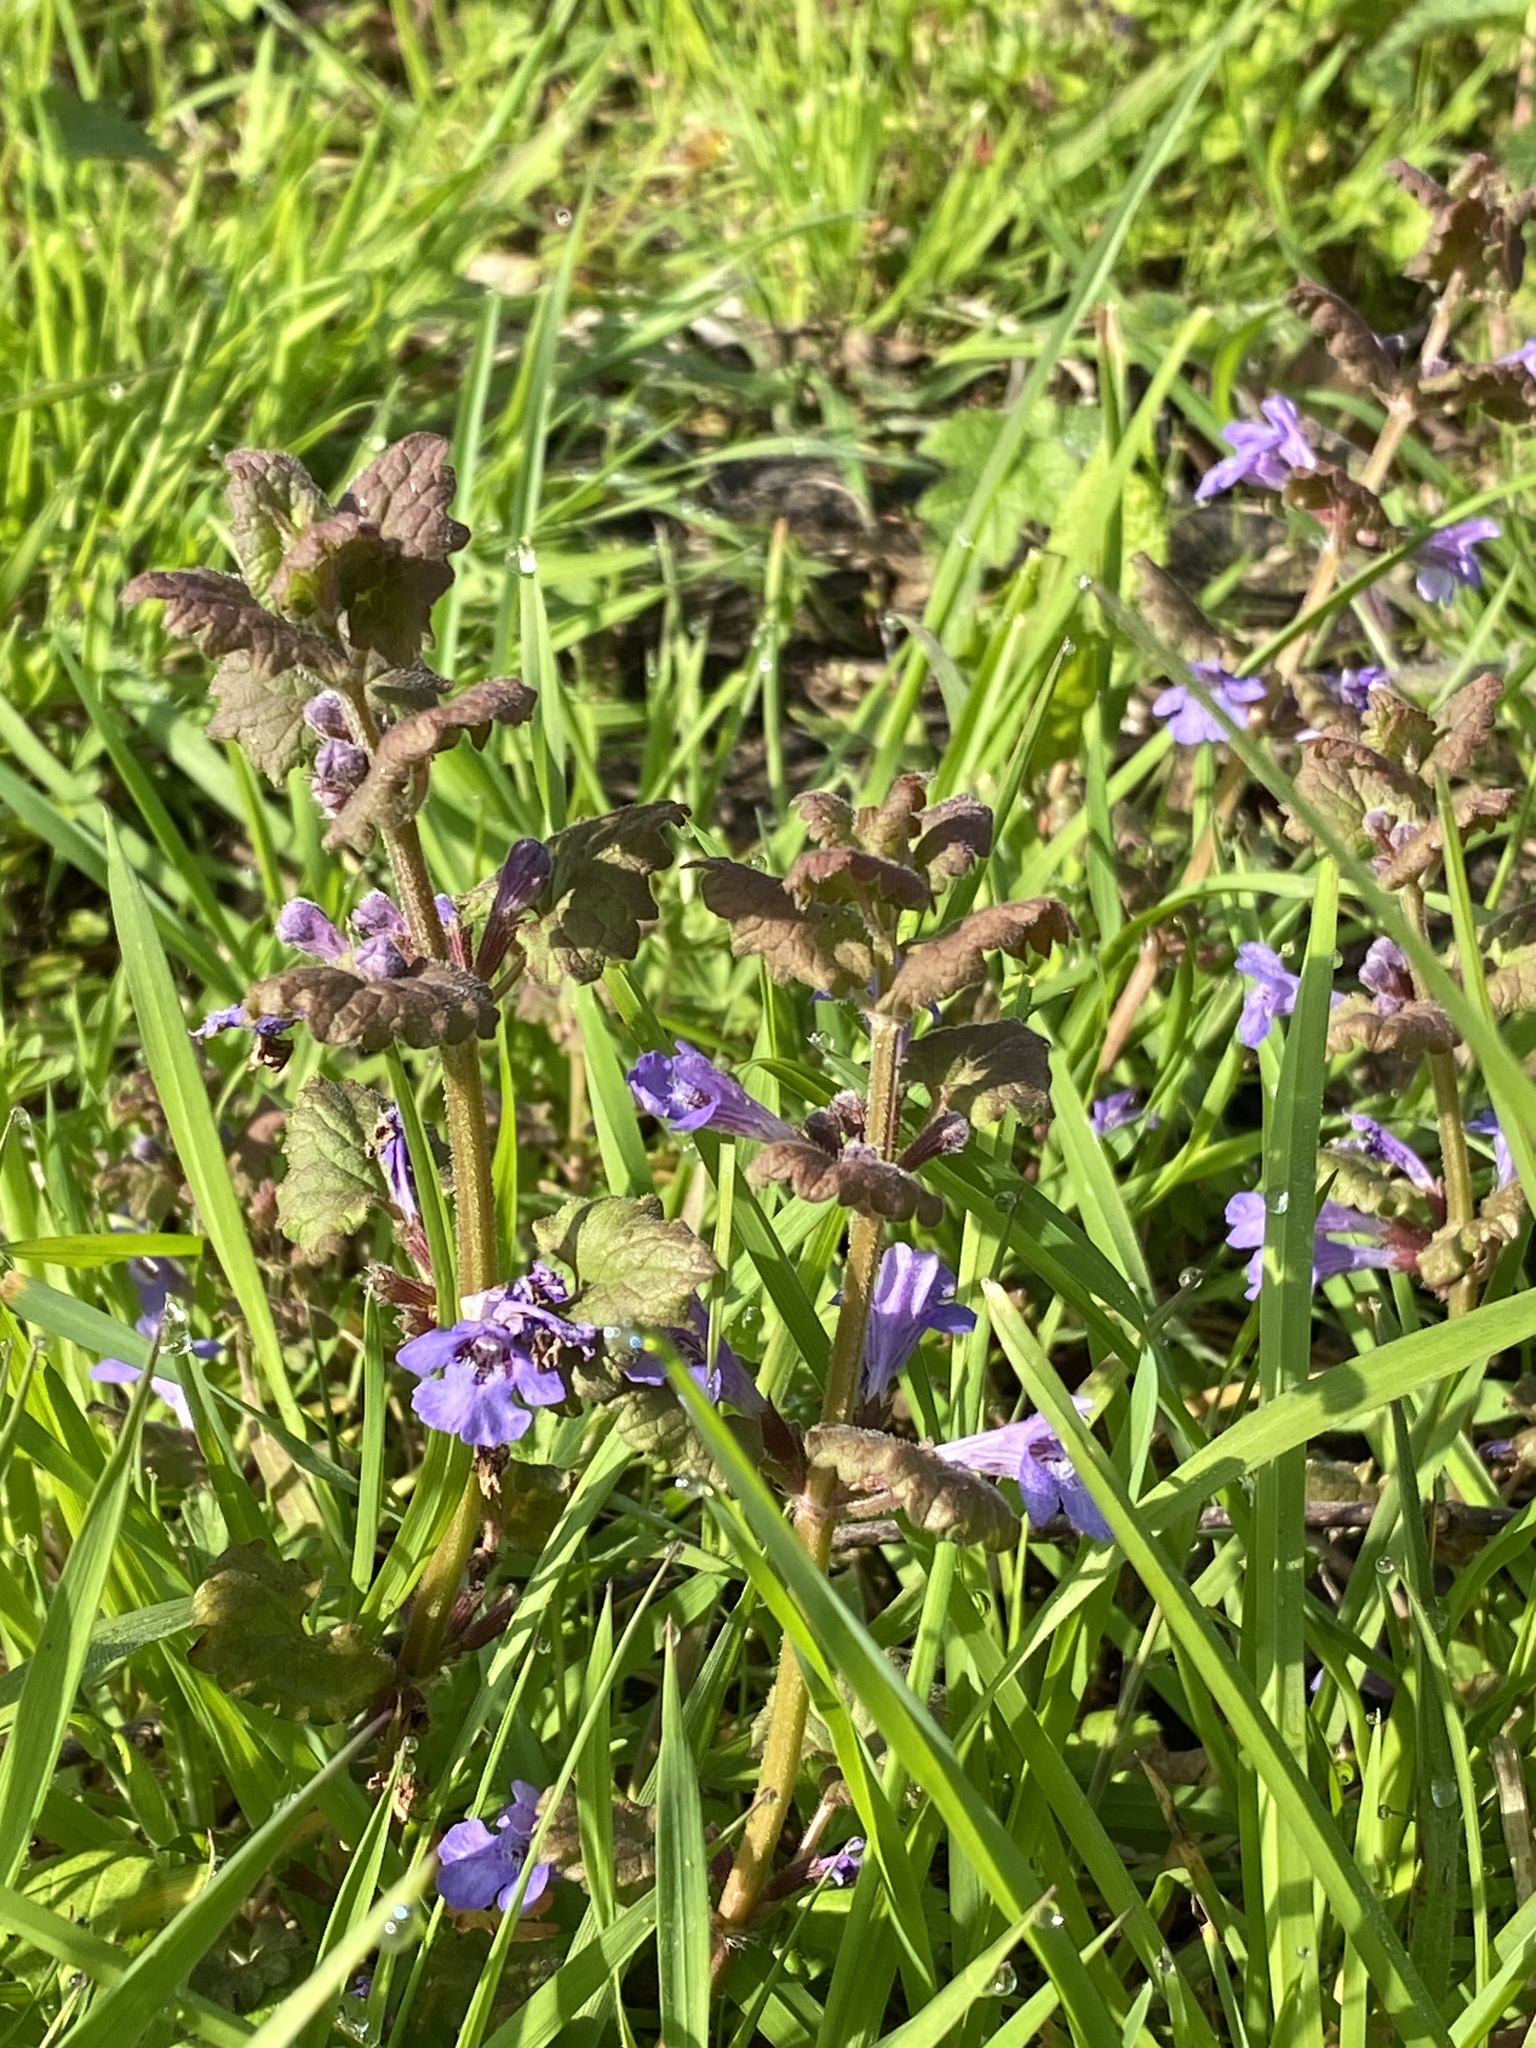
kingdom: Plantae
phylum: Tracheophyta
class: Magnoliopsida
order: Lamiales
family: Lamiaceae
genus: Glechoma
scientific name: Glechoma hederacea
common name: Ground ivy
